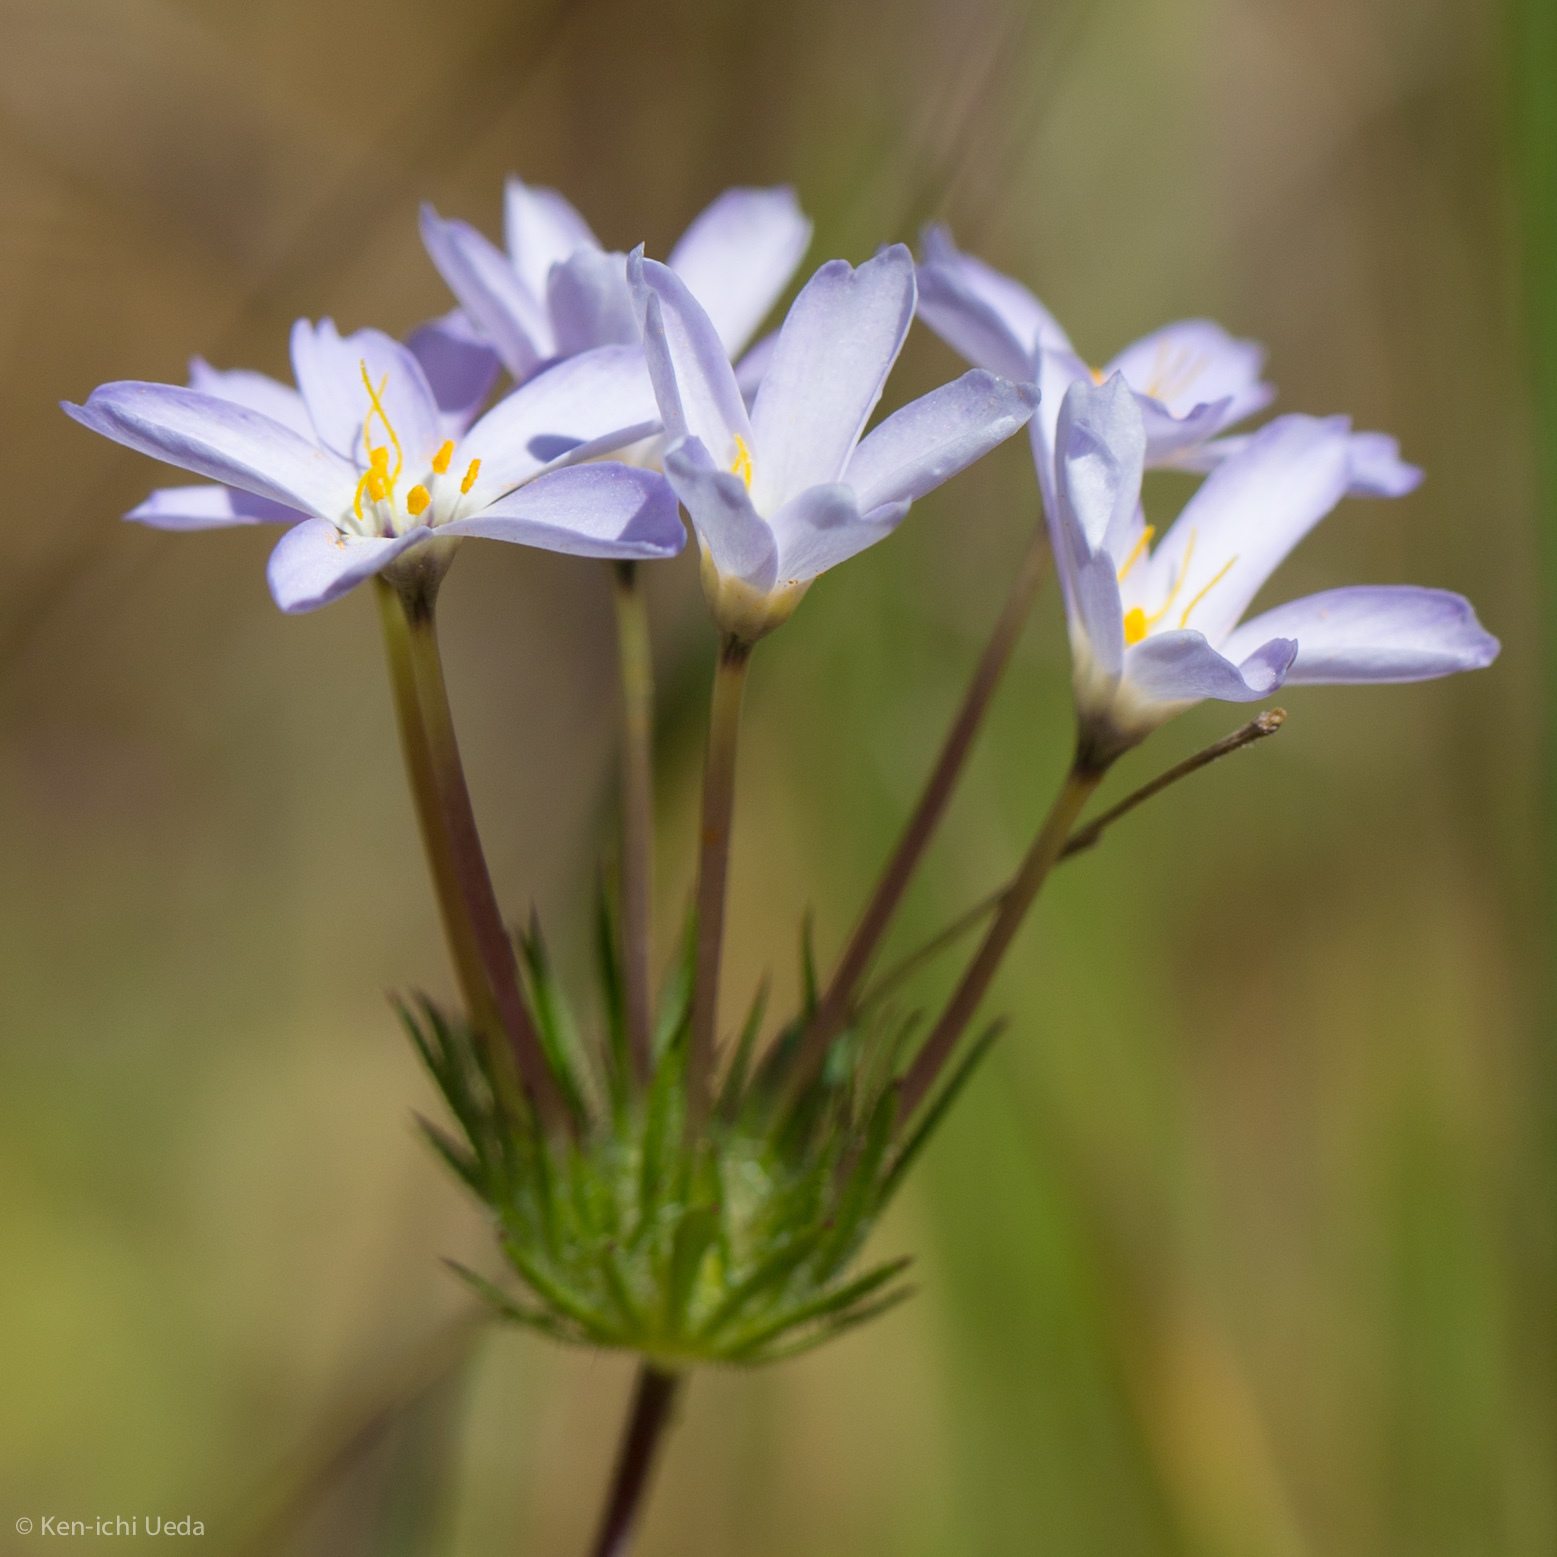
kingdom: Plantae
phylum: Tracheophyta
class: Magnoliopsida
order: Ericales
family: Polemoniaceae
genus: Leptosiphon
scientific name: Leptosiphon androsaceus
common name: False babystars
